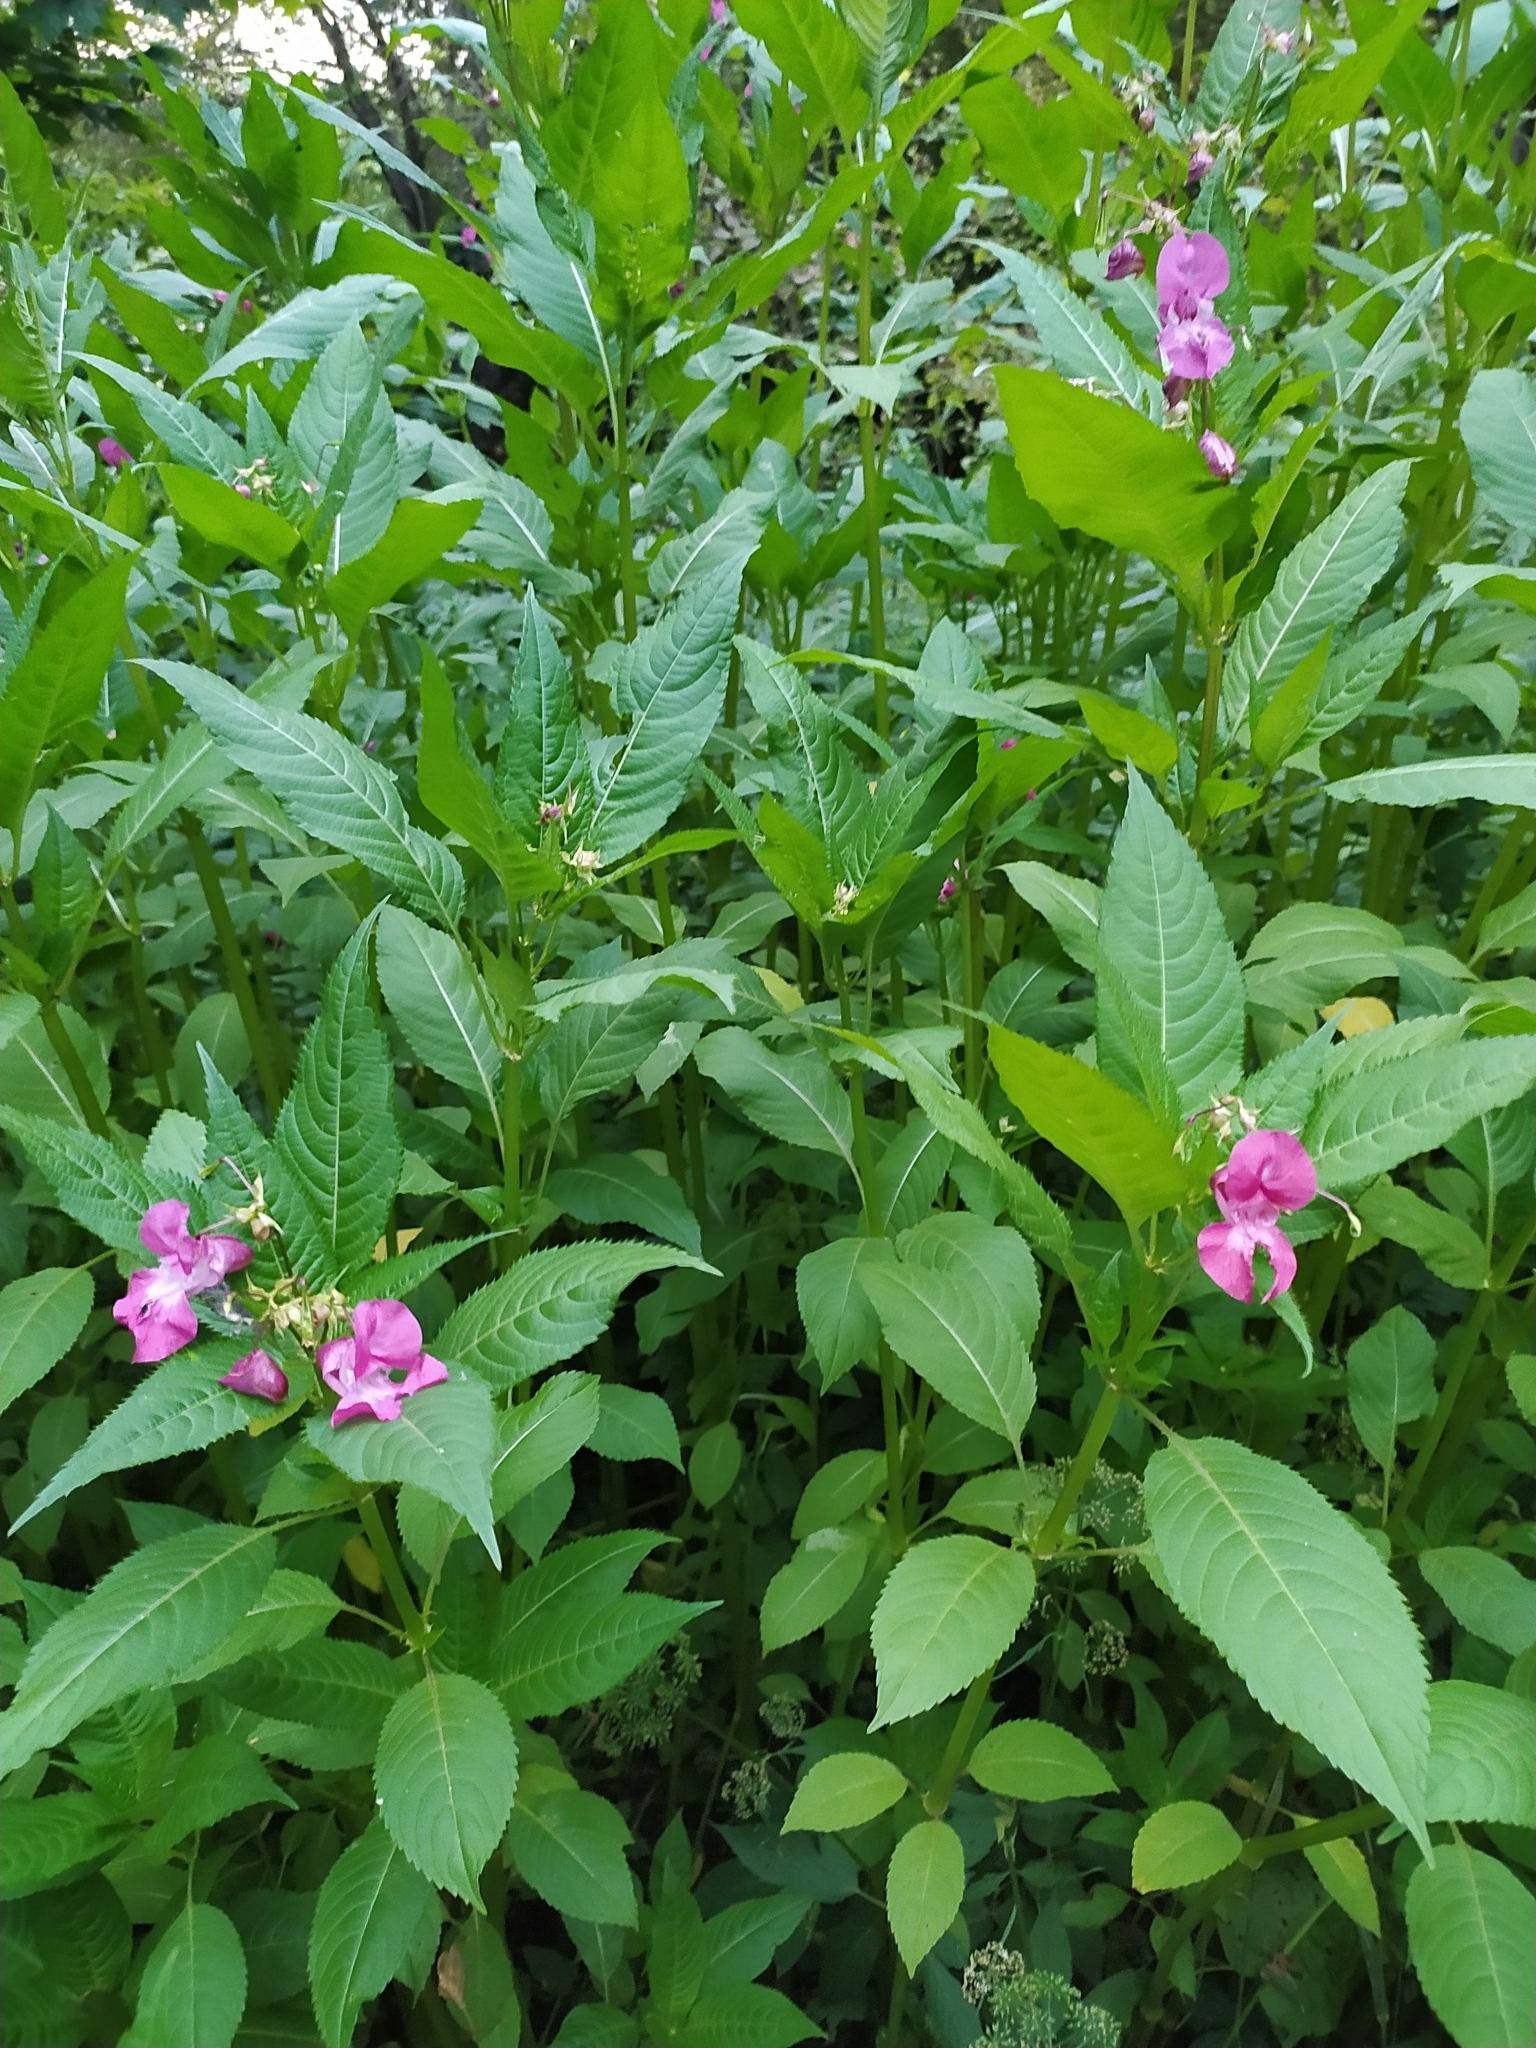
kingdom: Plantae
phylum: Tracheophyta
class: Magnoliopsida
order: Ericales
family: Balsaminaceae
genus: Impatiens
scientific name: Impatiens glandulifera
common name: Himalayan balsam
